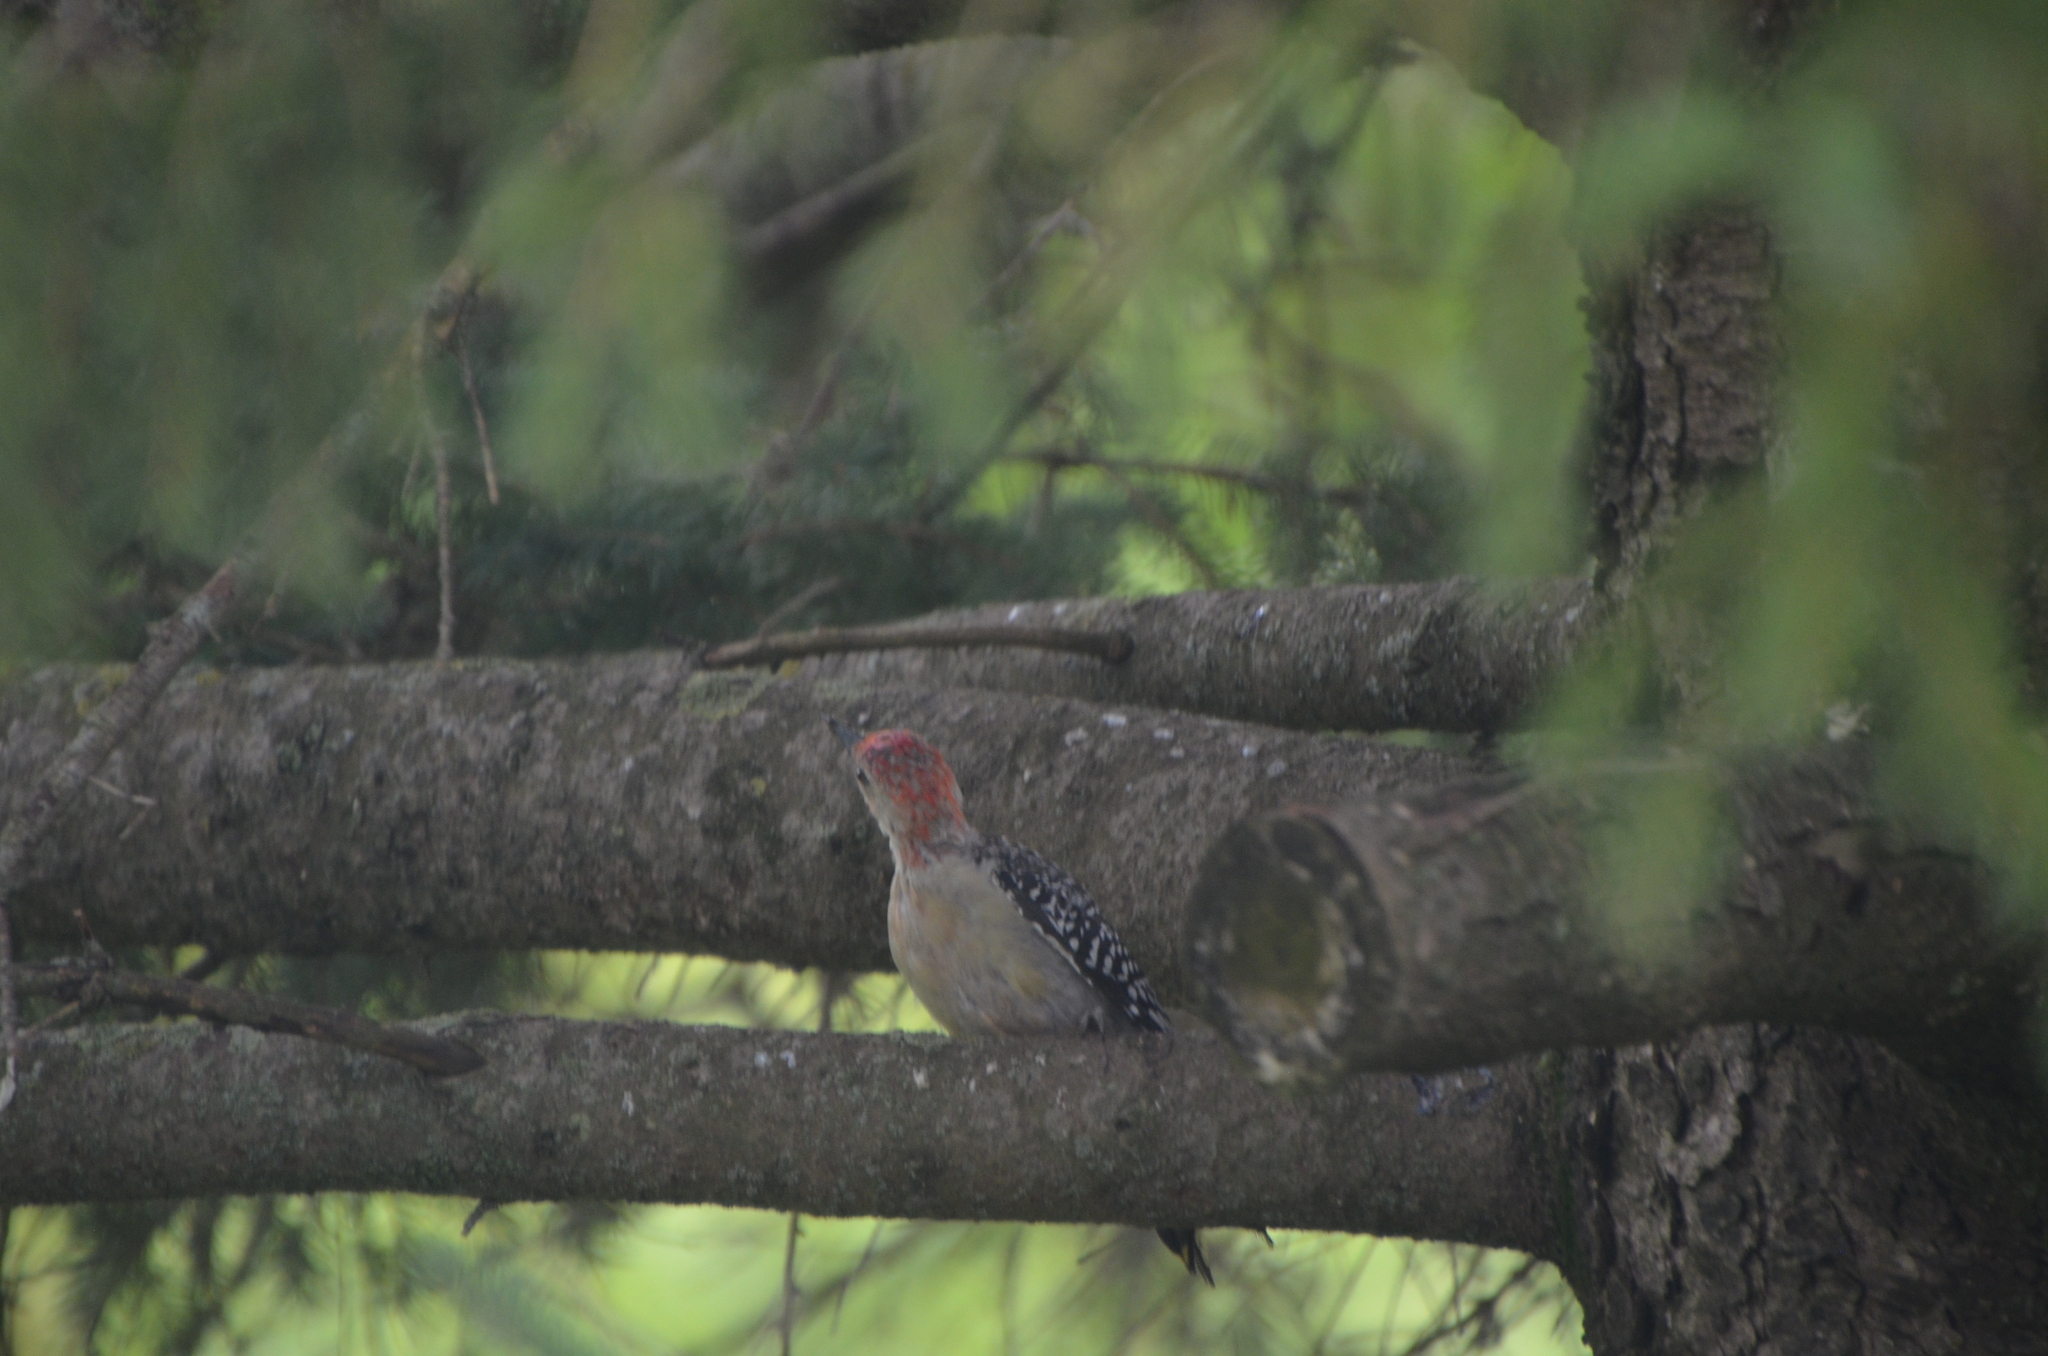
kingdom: Animalia
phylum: Chordata
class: Aves
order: Piciformes
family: Picidae
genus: Melanerpes
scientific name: Melanerpes carolinus
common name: Red-bellied woodpecker
